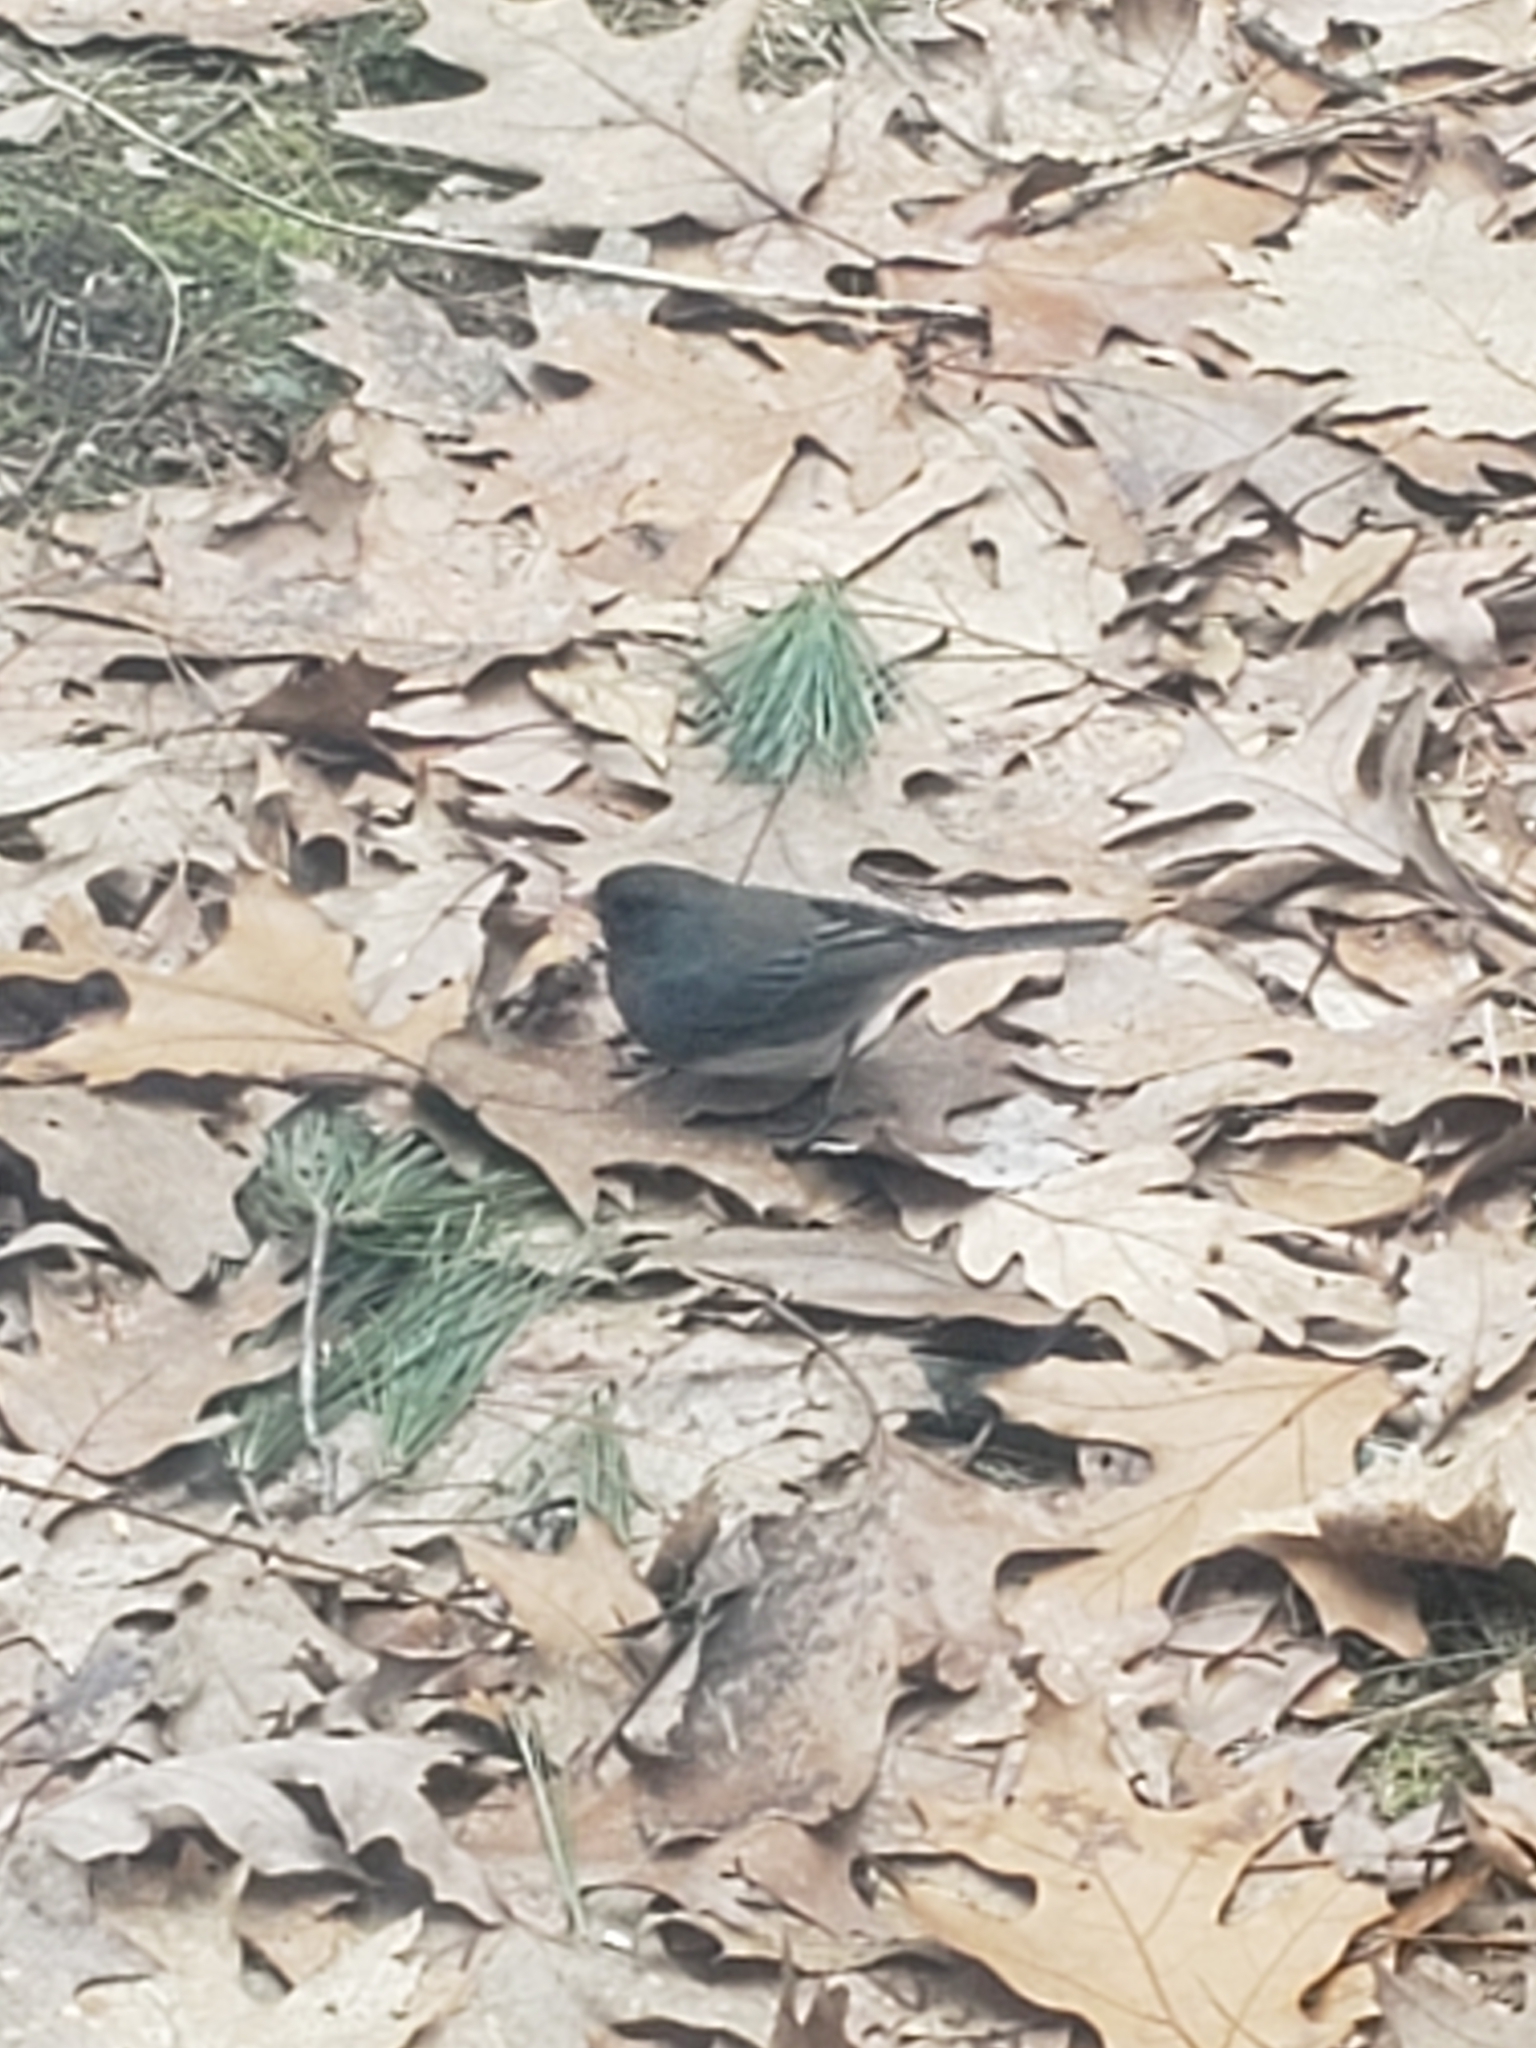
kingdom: Animalia
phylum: Chordata
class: Aves
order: Passeriformes
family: Passerellidae
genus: Junco
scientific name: Junco hyemalis
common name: Dark-eyed junco
